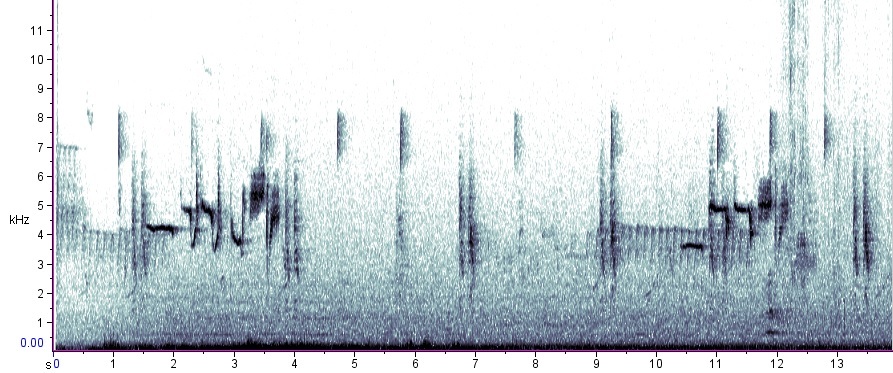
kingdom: Animalia
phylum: Chordata
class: Aves
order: Passeriformes
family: Passerellidae
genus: Zonotrichia
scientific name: Zonotrichia leucophrys
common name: White-crowned sparrow
